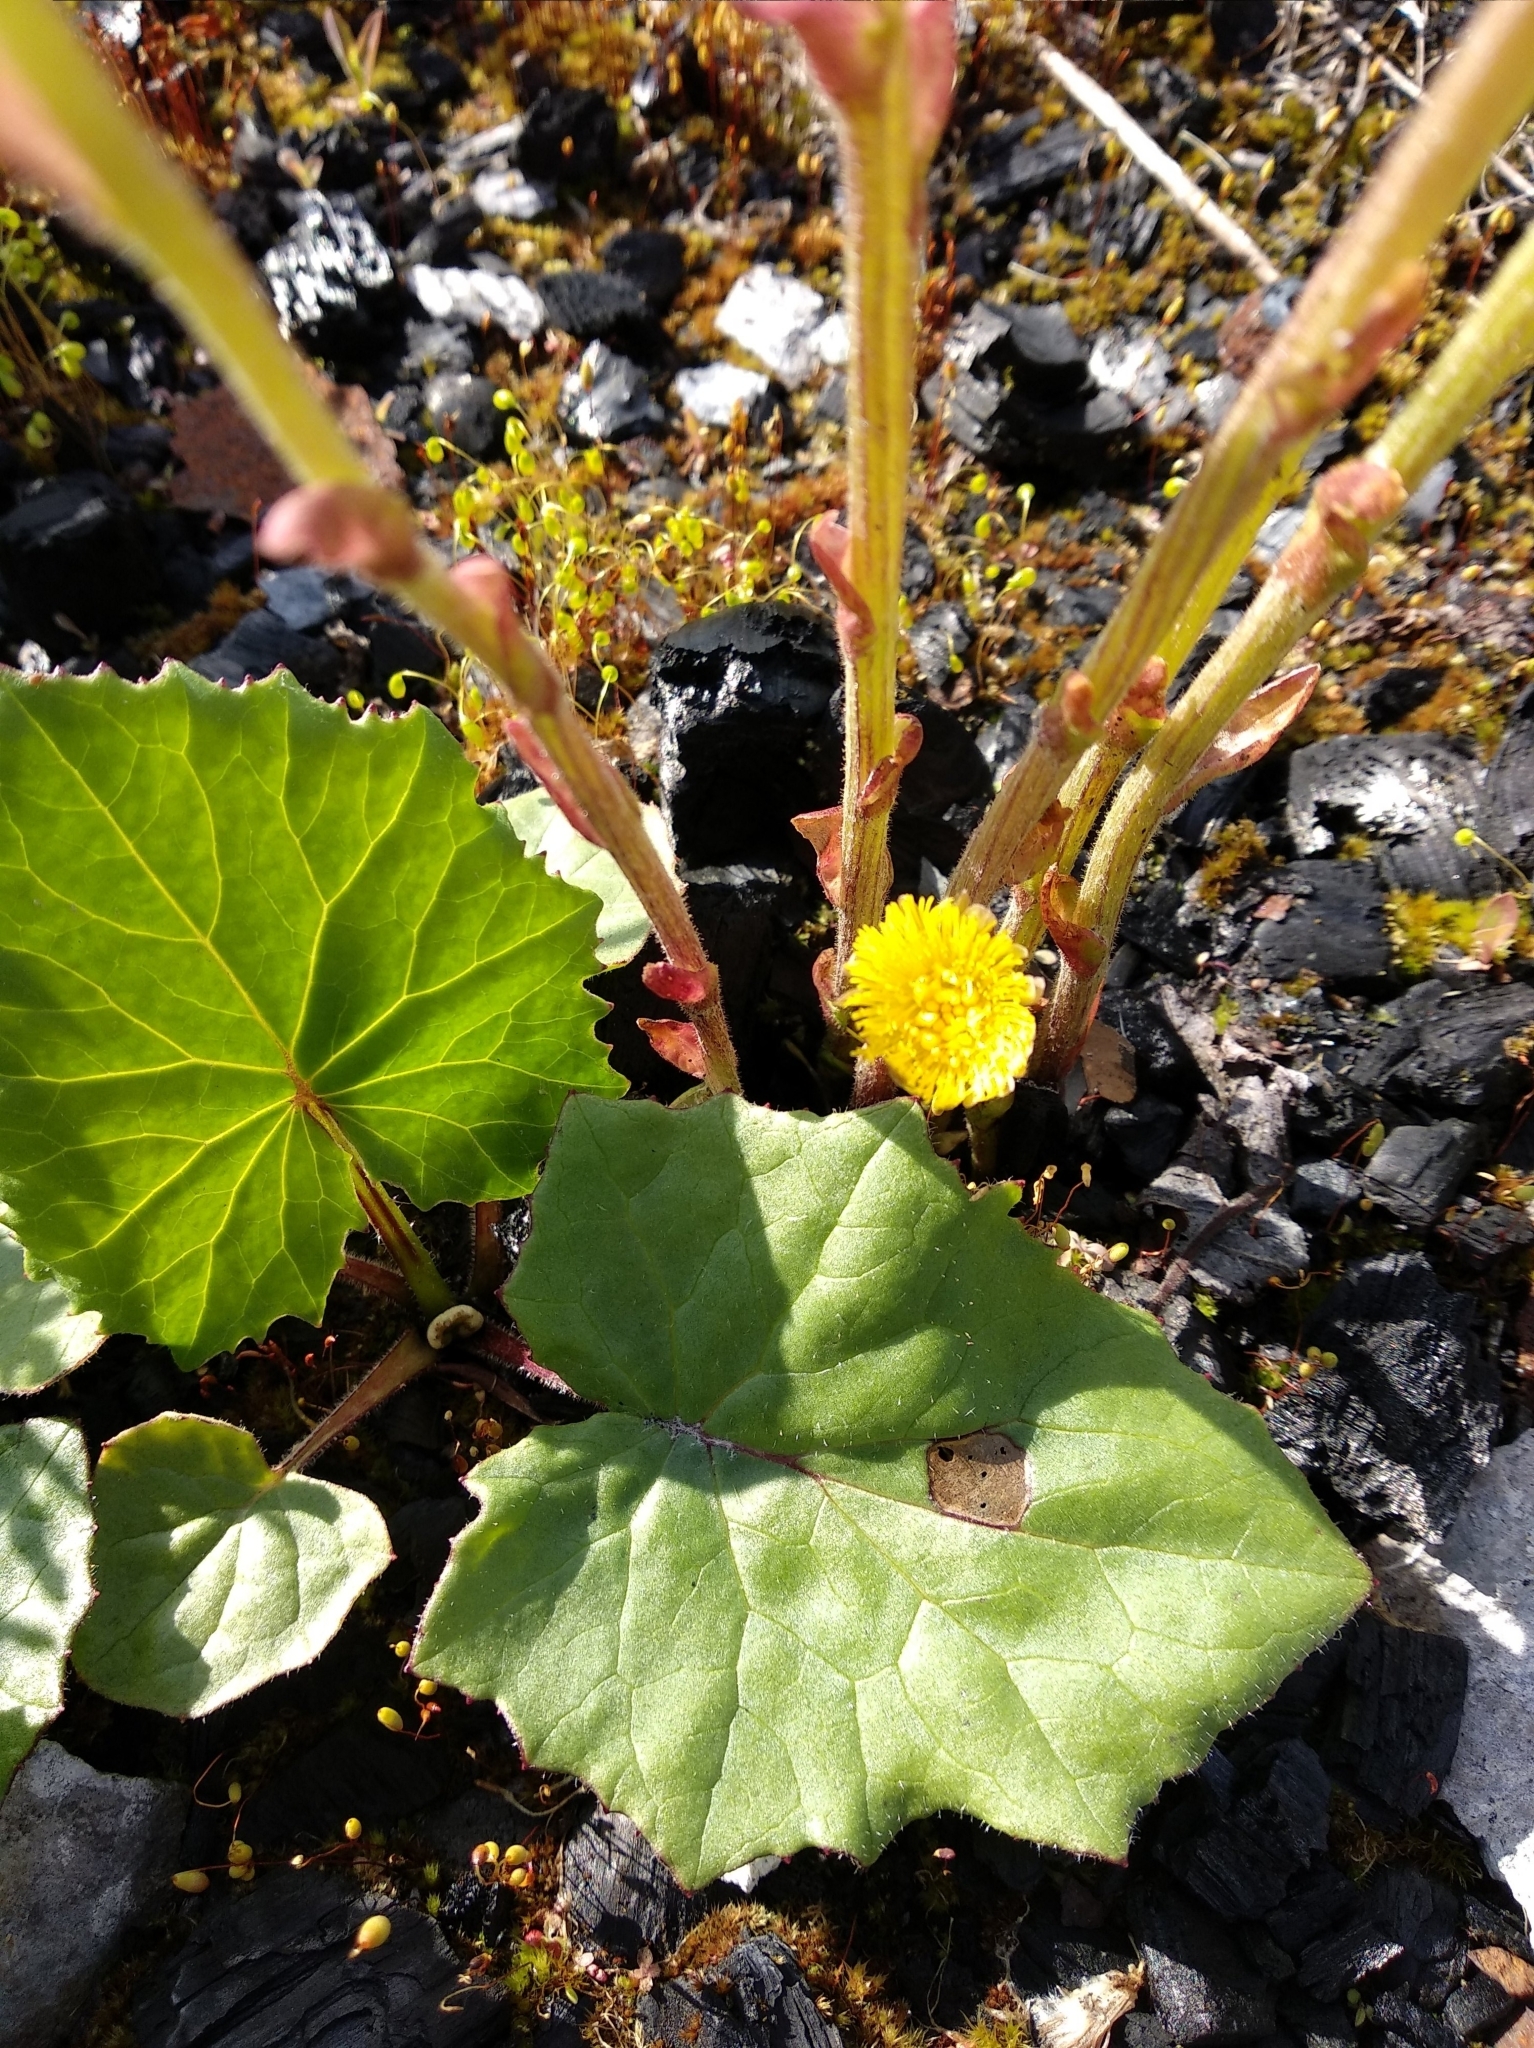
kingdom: Plantae
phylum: Tracheophyta
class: Magnoliopsida
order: Asterales
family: Asteraceae
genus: Tussilago
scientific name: Tussilago farfara
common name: Coltsfoot
